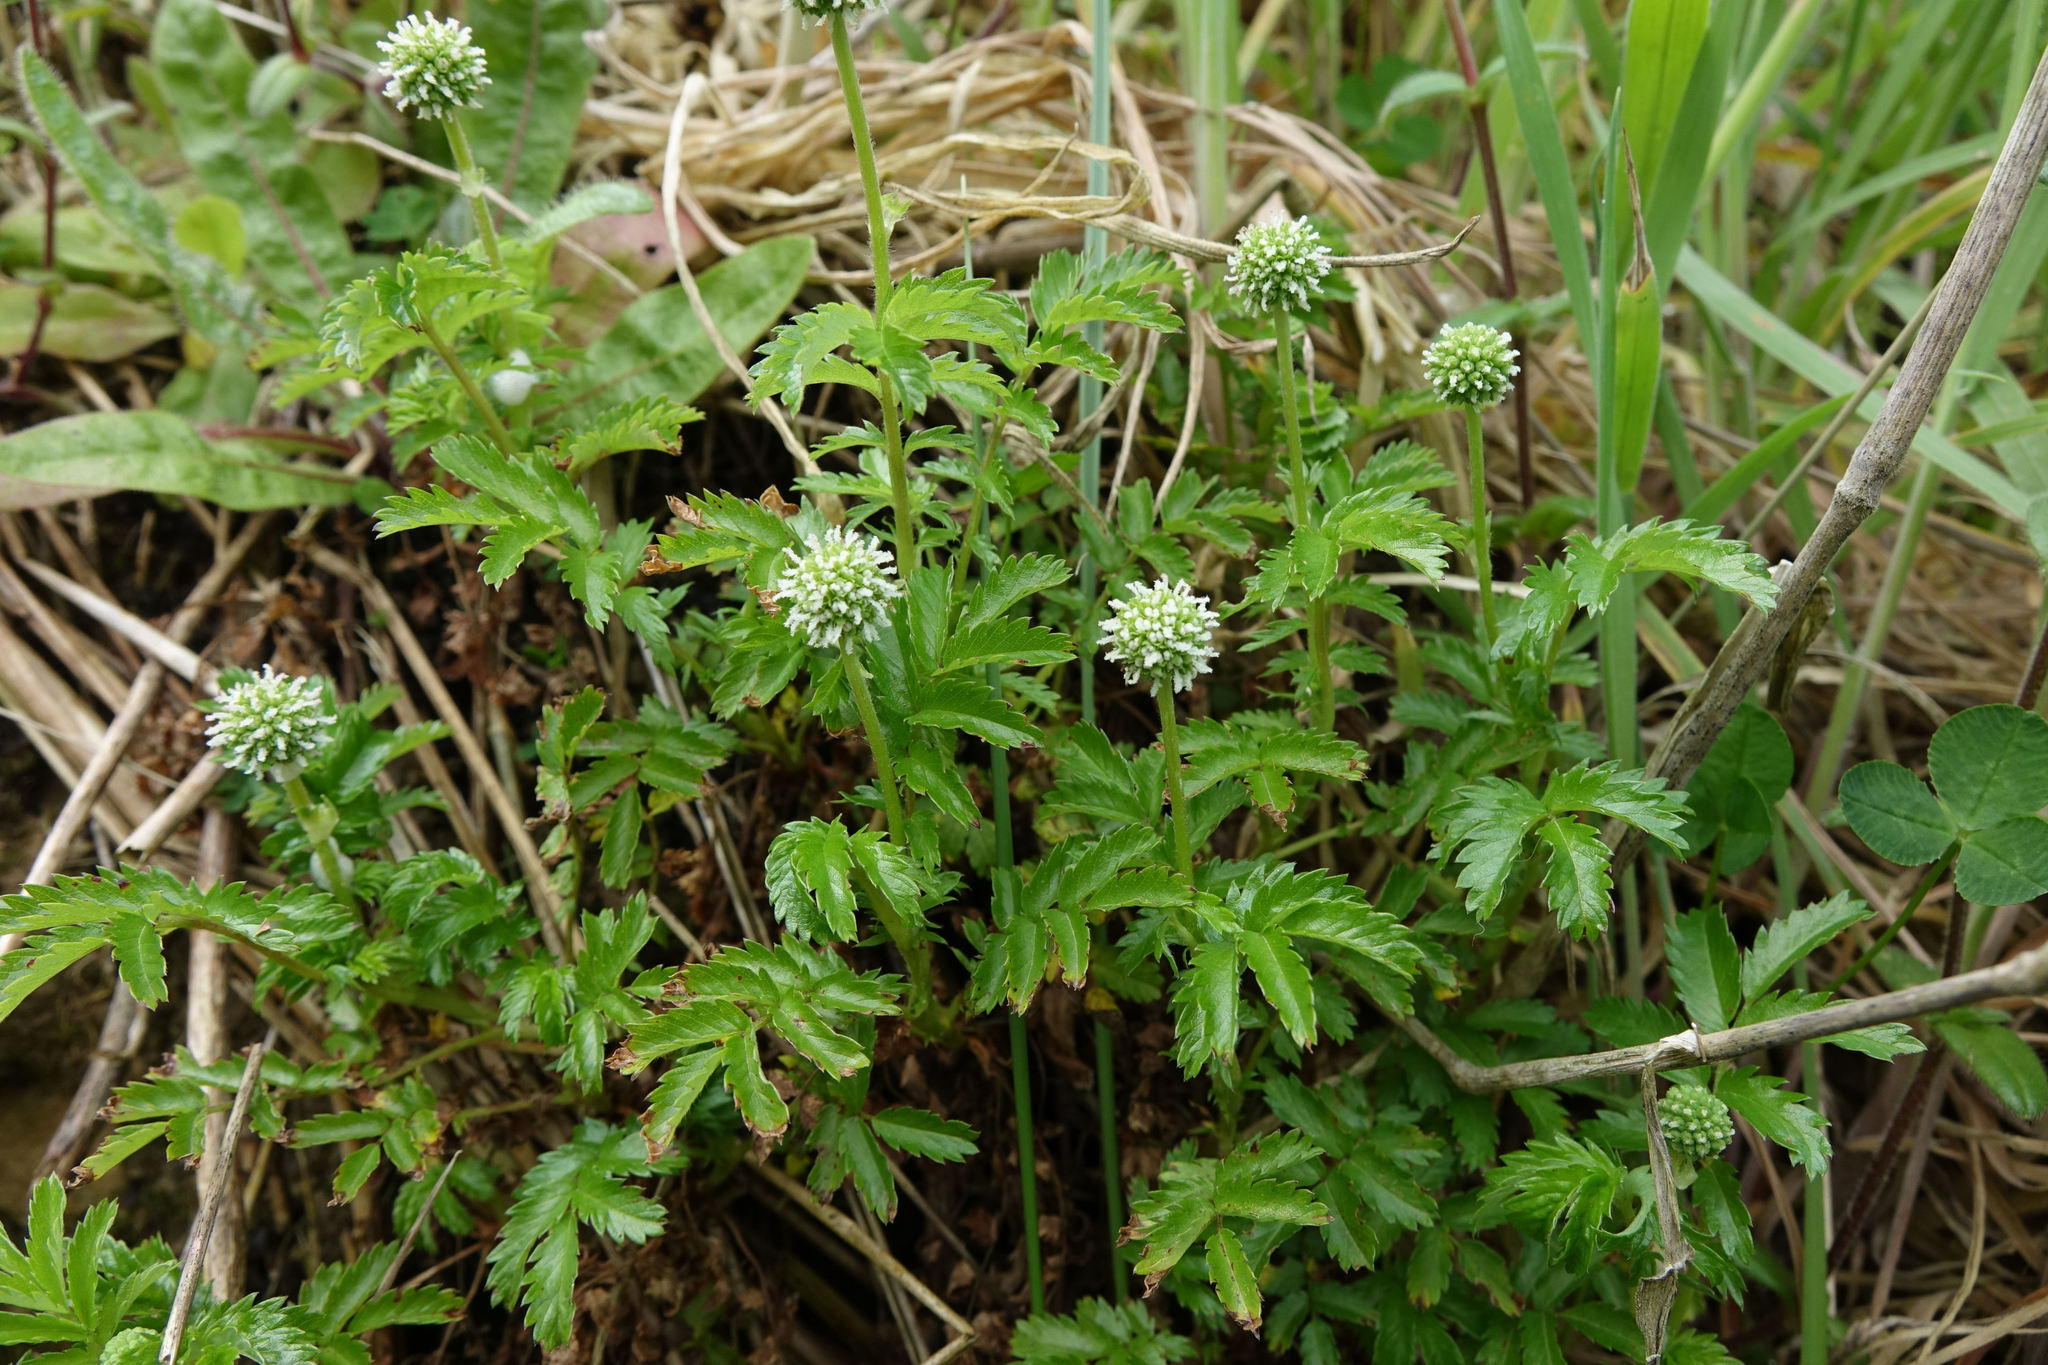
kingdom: Plantae
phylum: Tracheophyta
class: Magnoliopsida
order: Rosales
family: Rosaceae
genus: Acaena
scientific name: Acaena novae-zelandiae
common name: Pirri-pirri-bur
